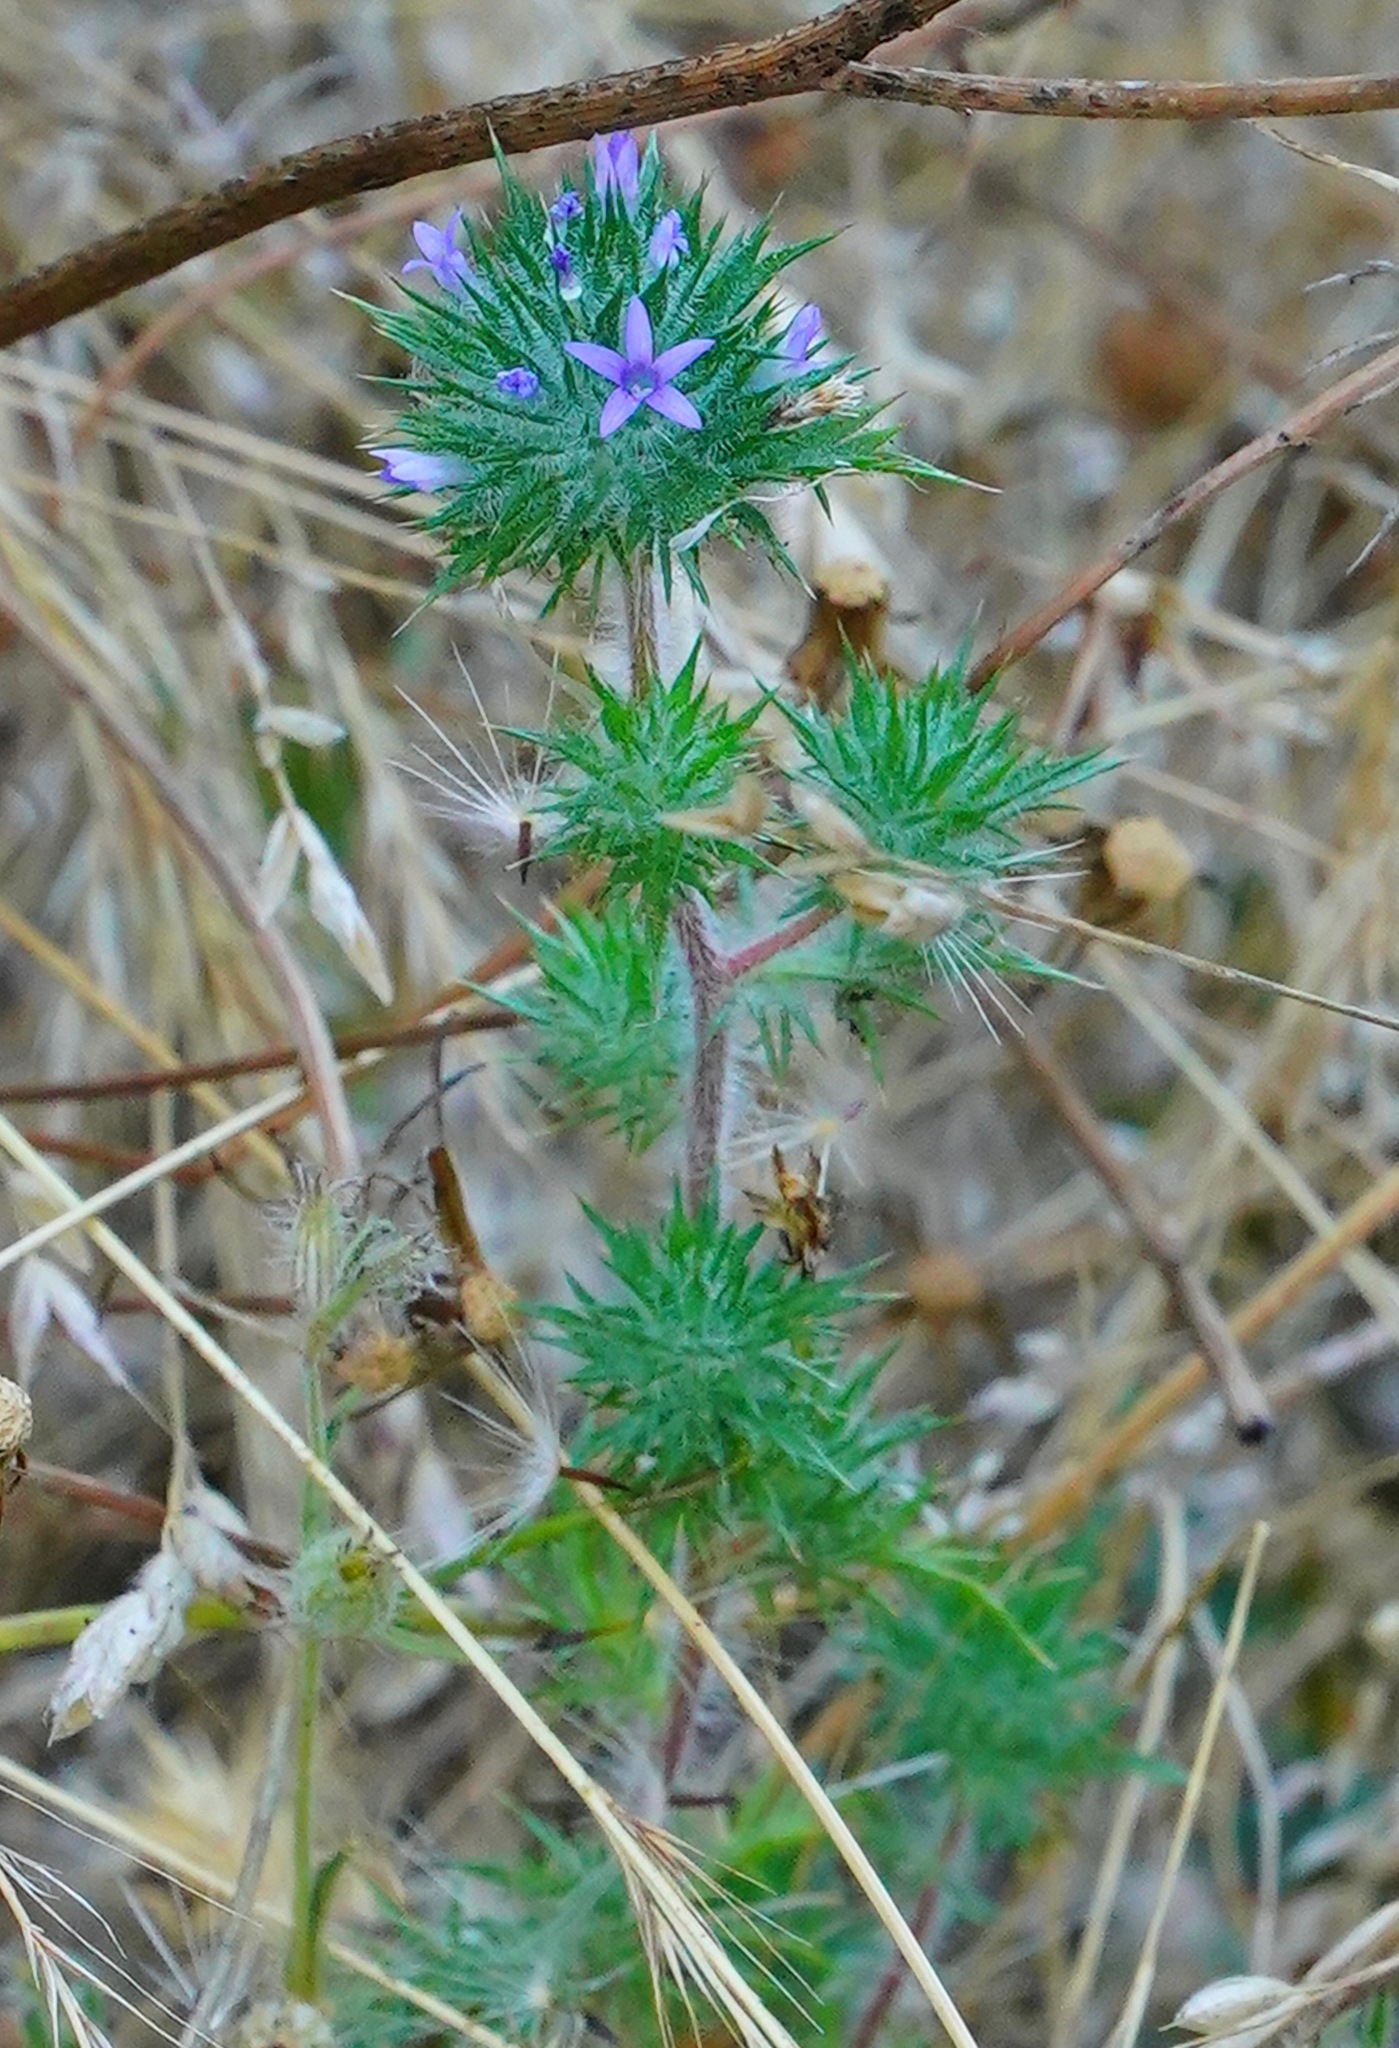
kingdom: Plantae
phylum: Tracheophyta
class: Magnoliopsida
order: Ericales
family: Polemoniaceae
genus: Navarretia
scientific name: Navarretia squarrosa
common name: Skunkweed
